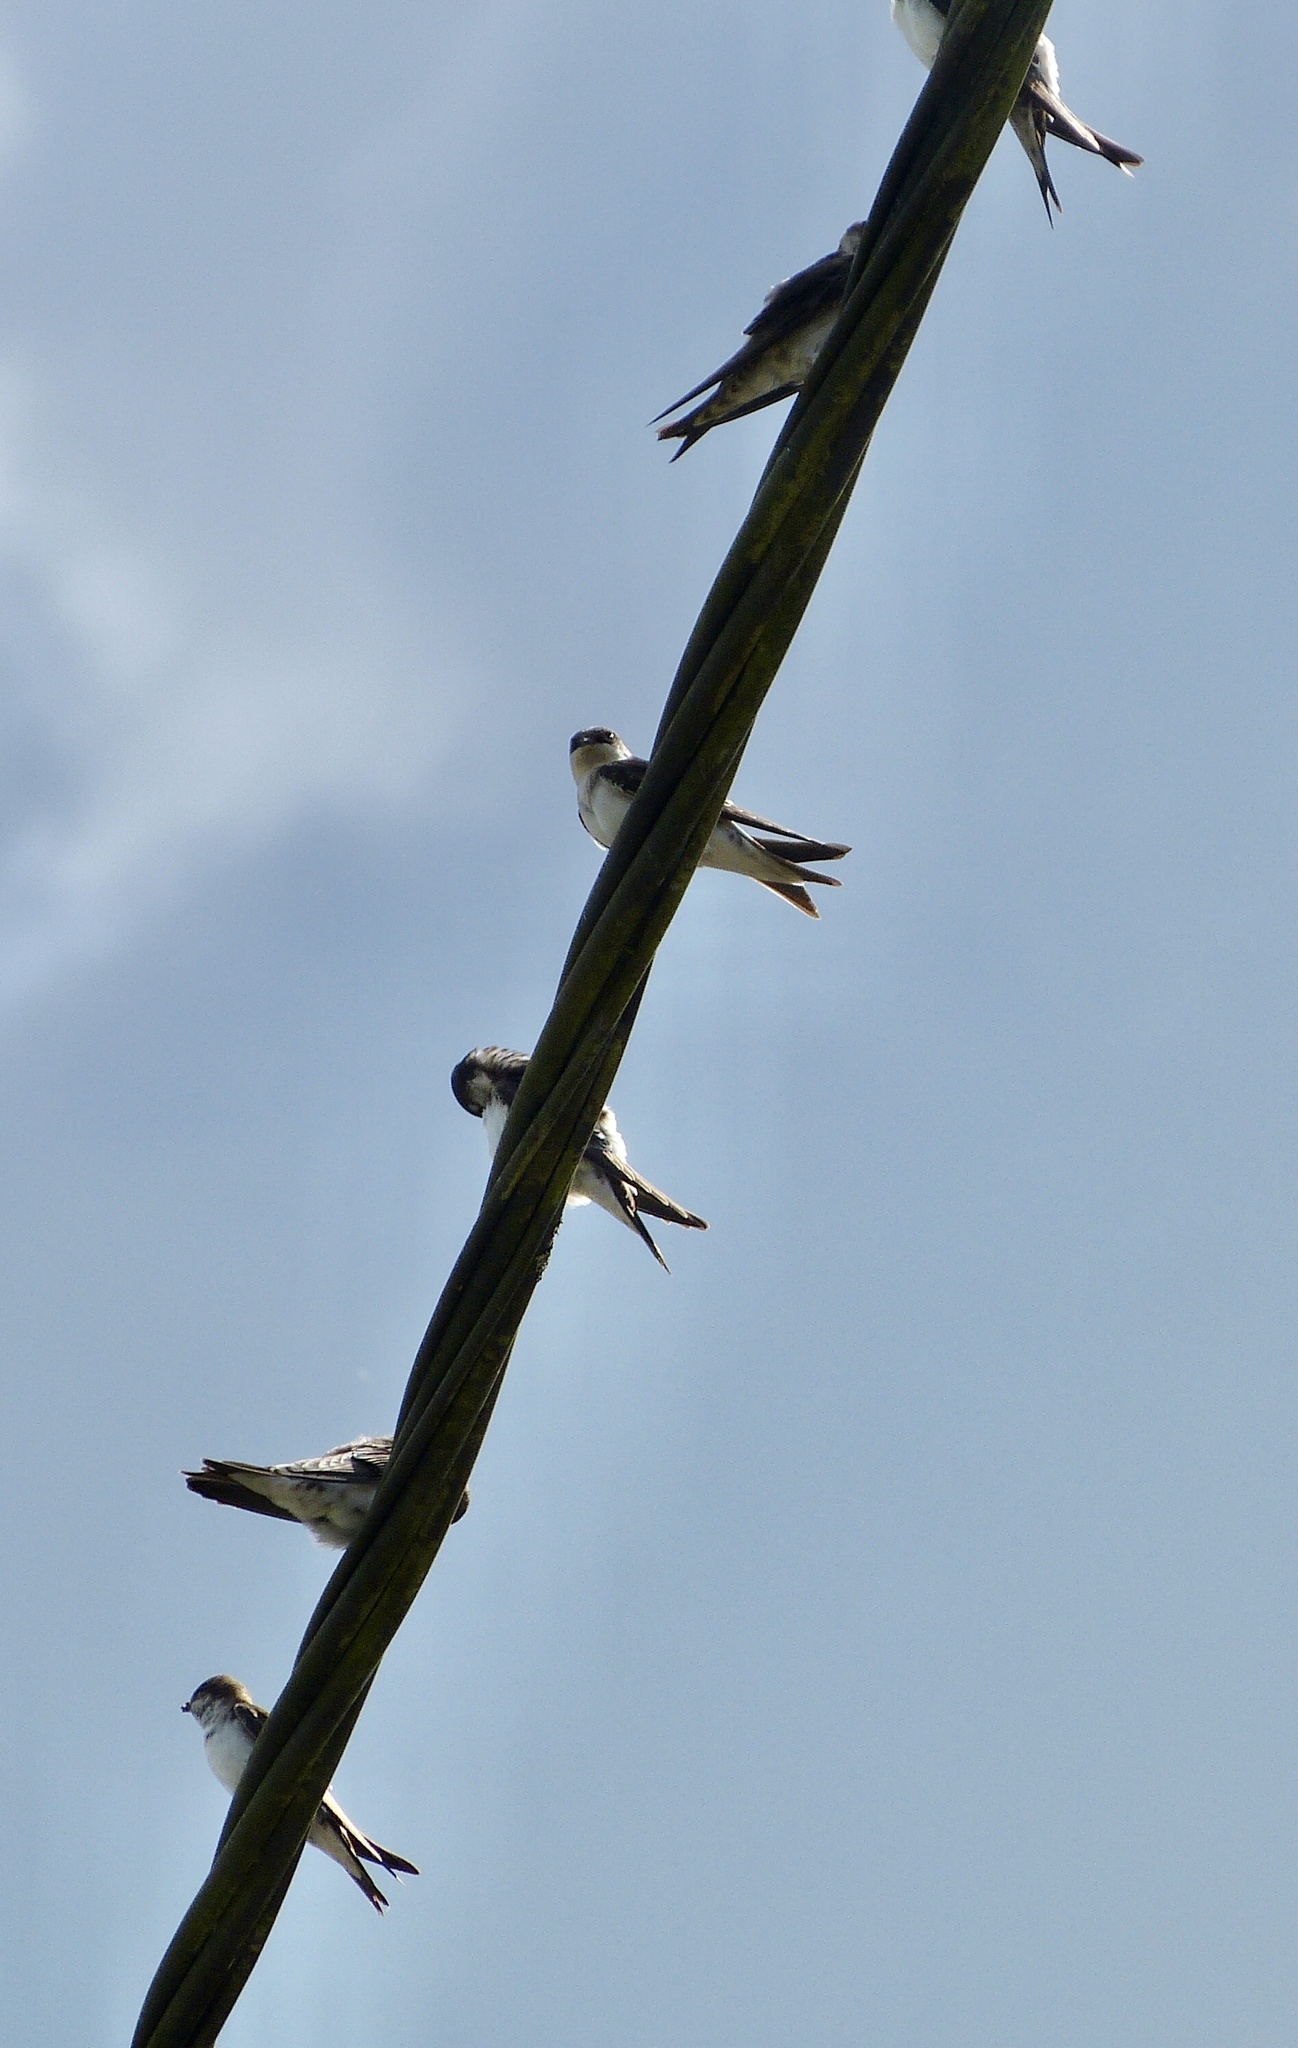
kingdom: Animalia
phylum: Chordata
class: Aves
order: Passeriformes
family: Hirundinidae
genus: Delichon
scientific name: Delichon urbicum
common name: Common house martin
